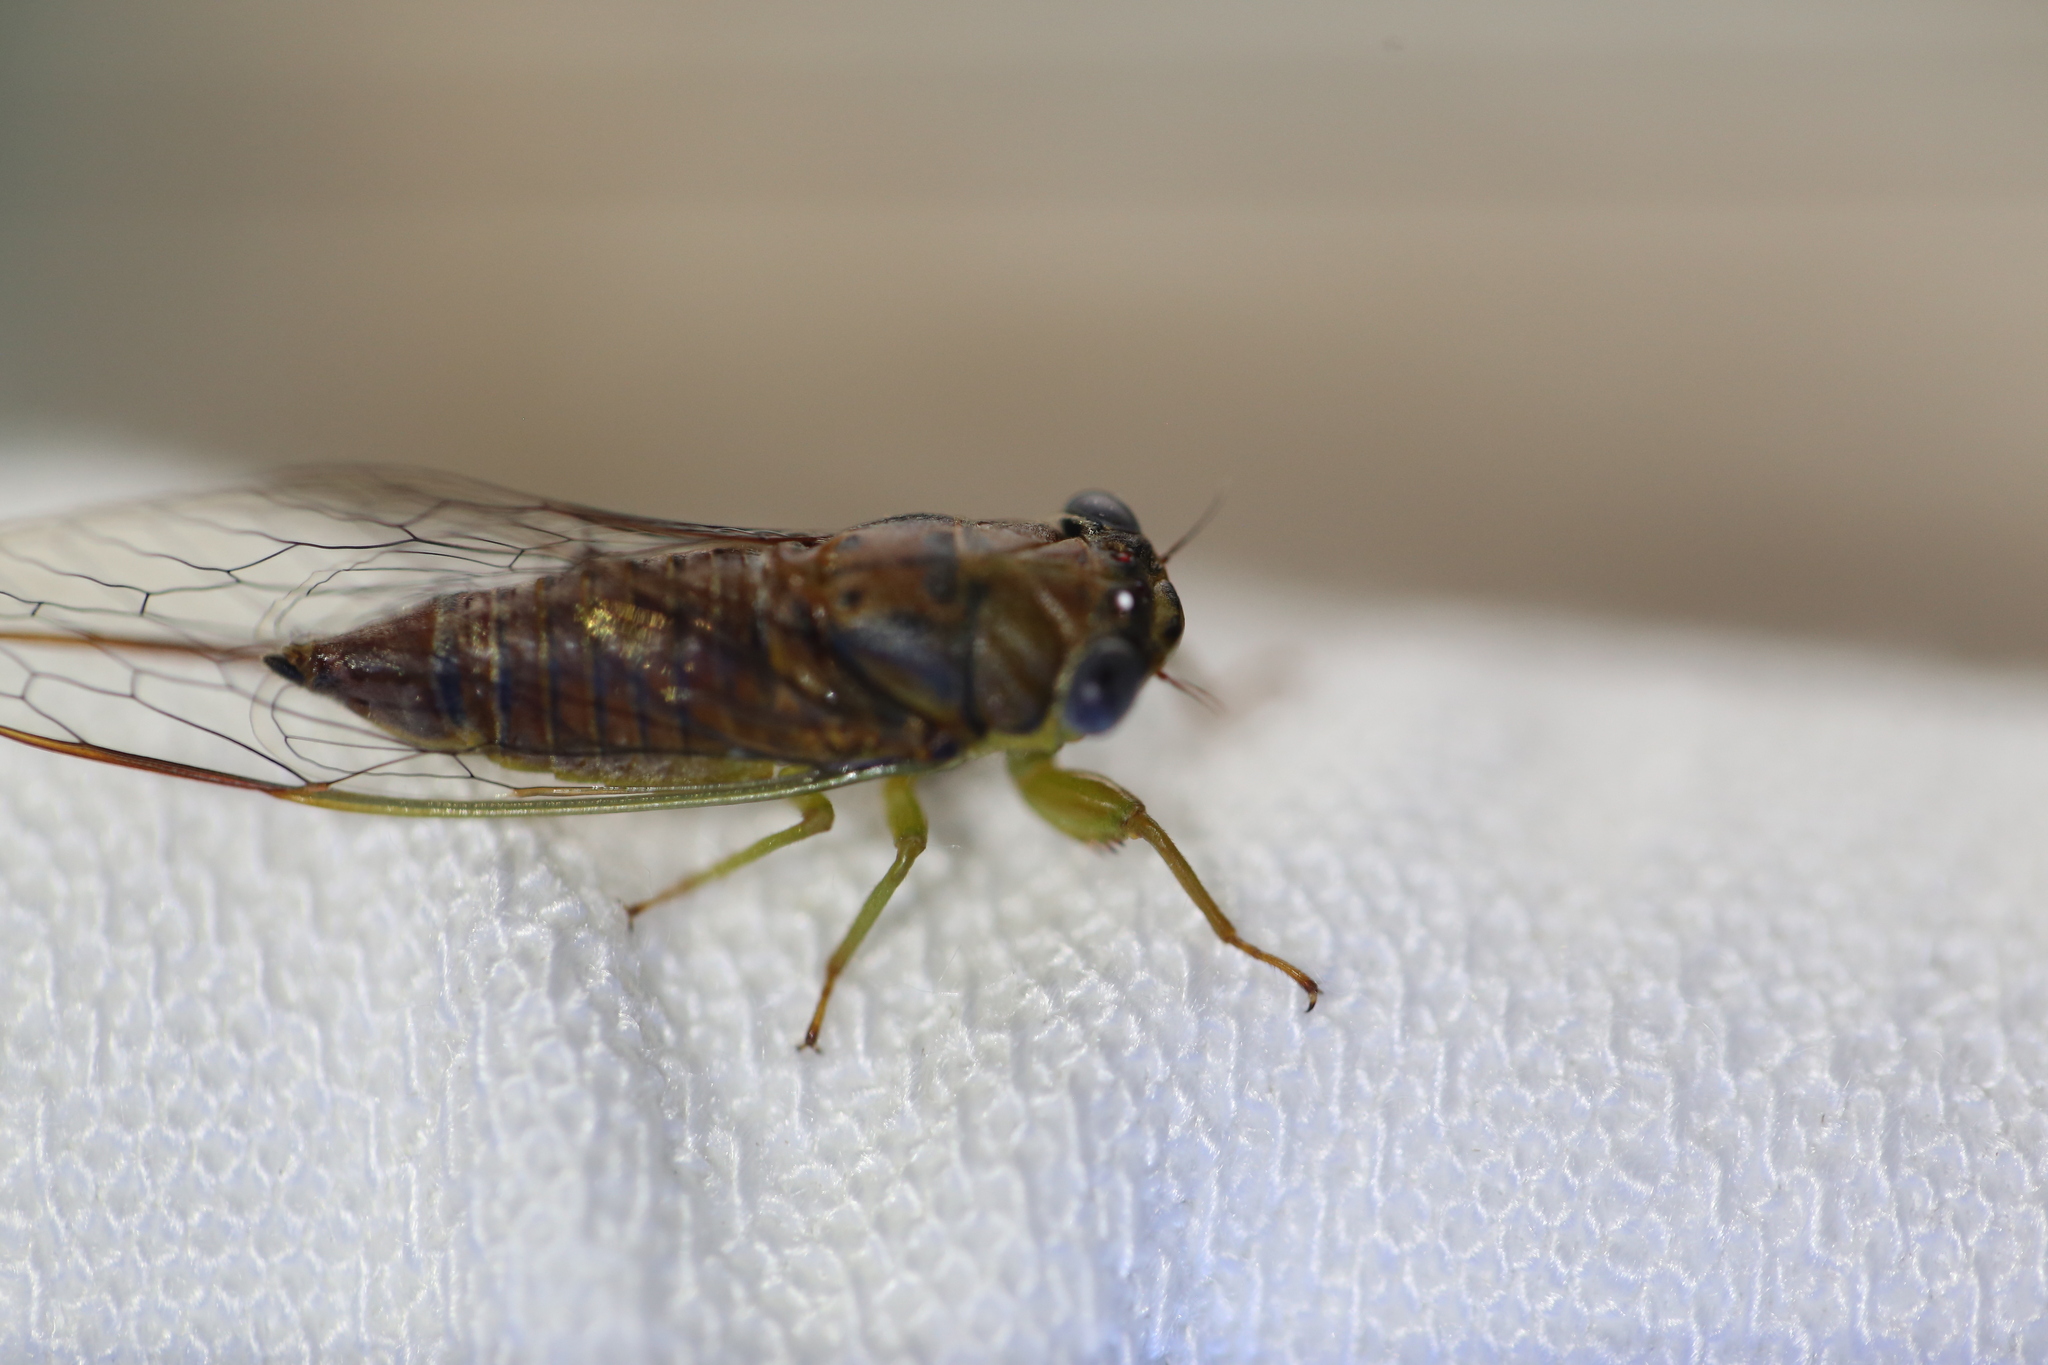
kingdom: Animalia
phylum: Arthropoda
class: Insecta
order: Hemiptera
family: Cicadidae
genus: Taurella
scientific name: Taurella forresti
